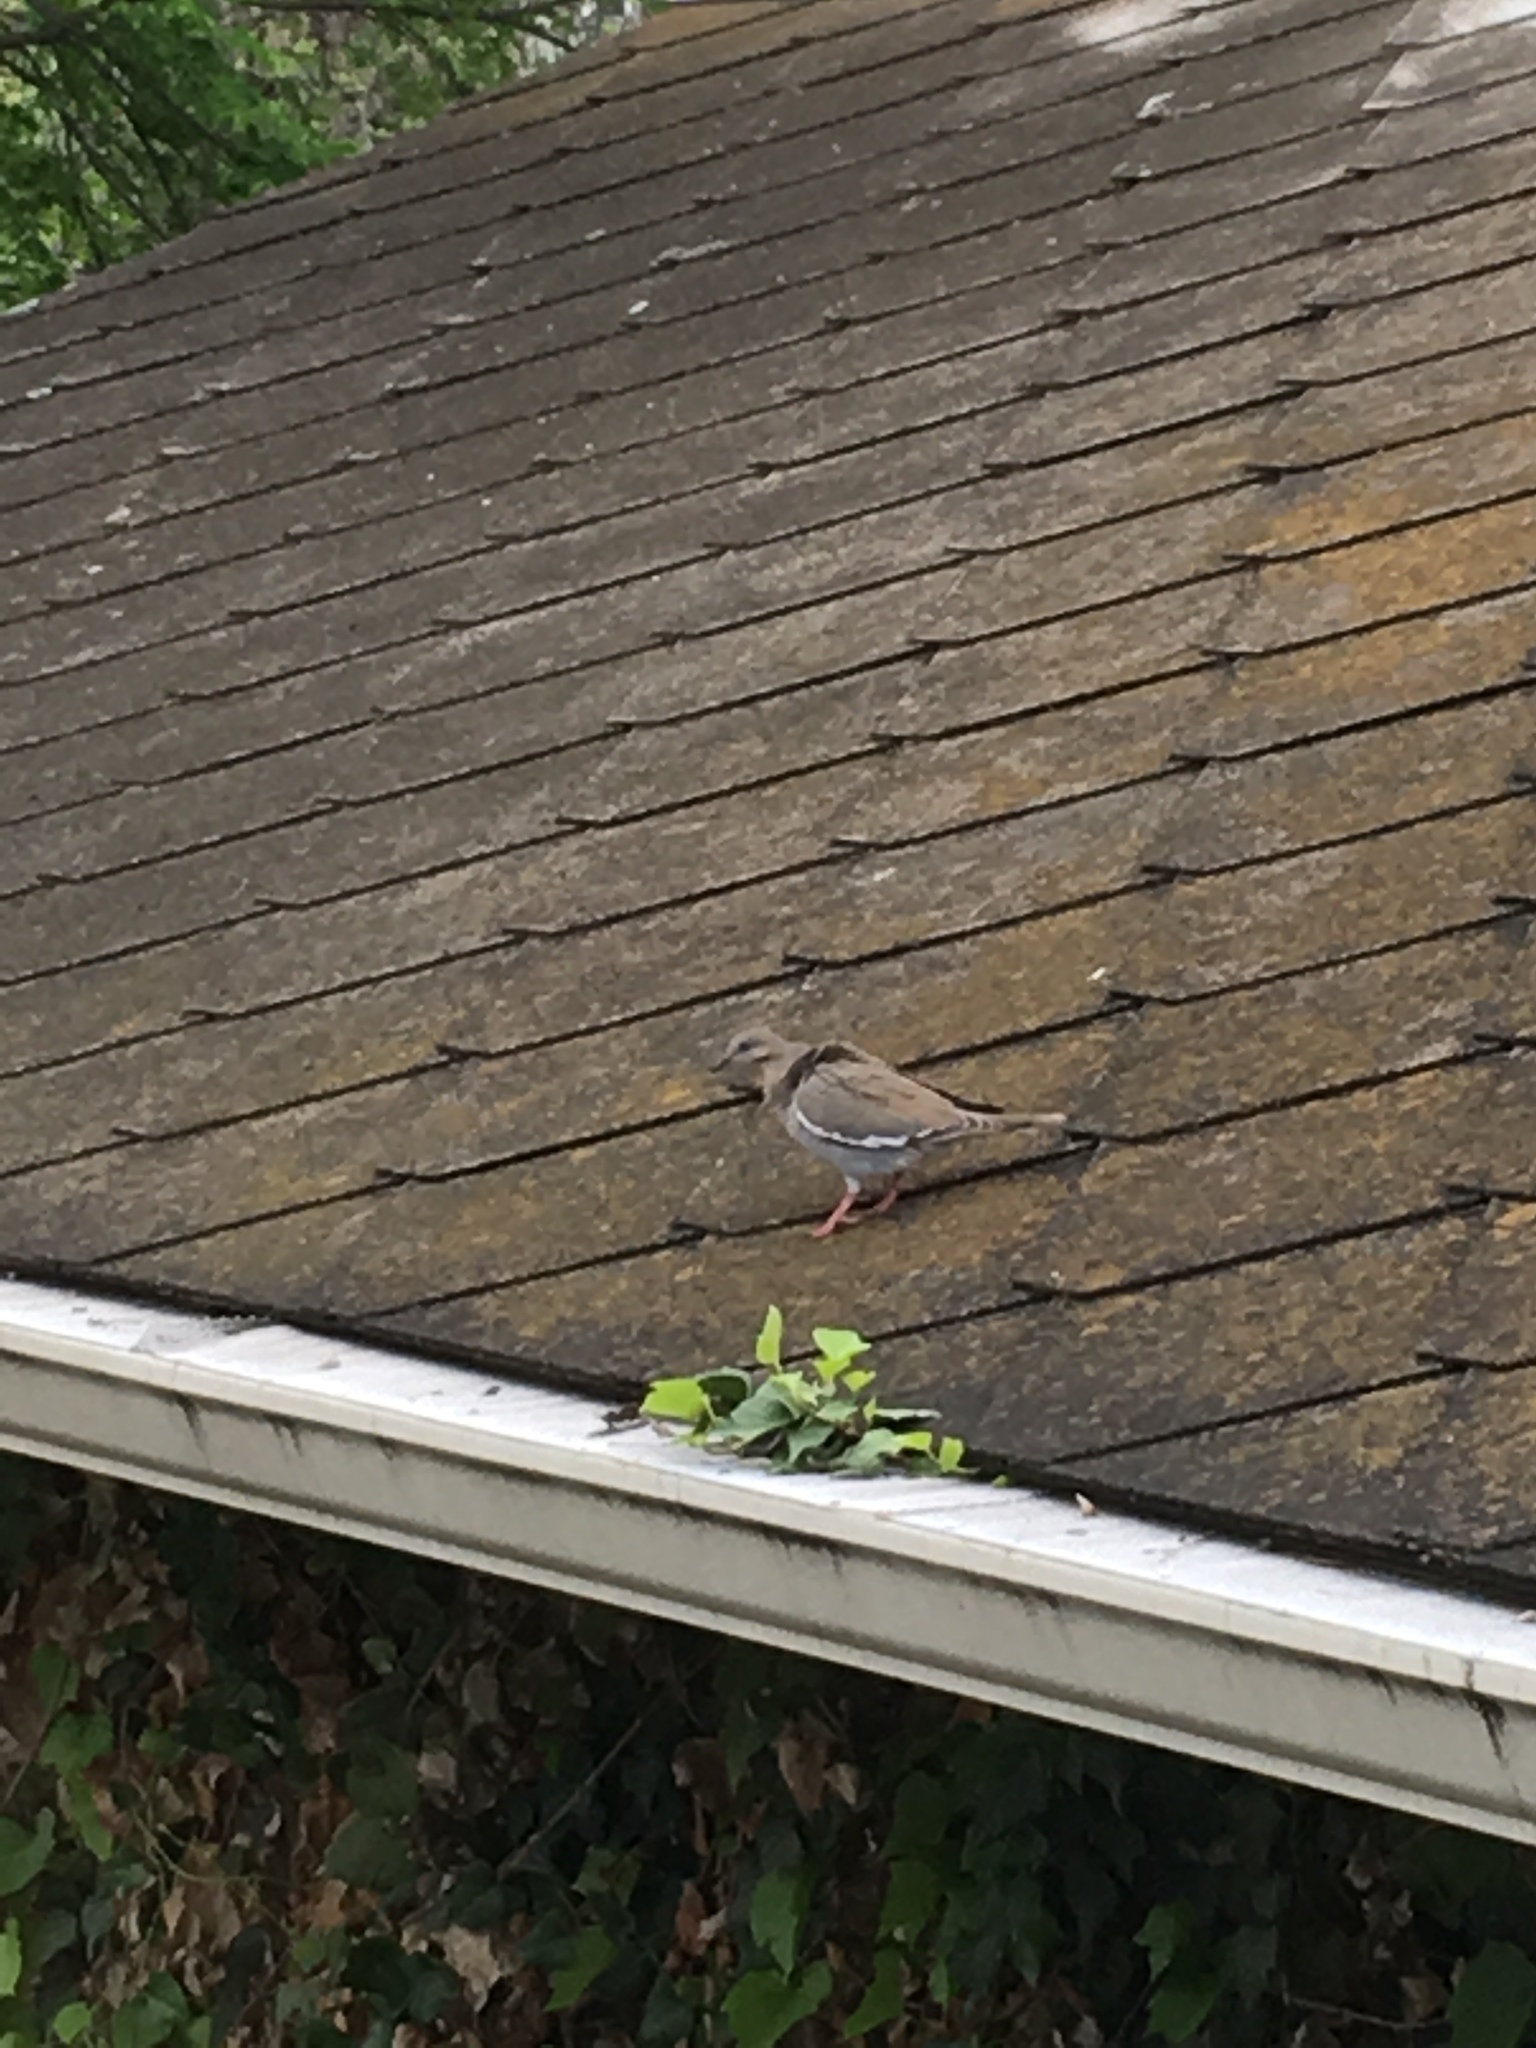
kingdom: Animalia
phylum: Chordata
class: Aves
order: Columbiformes
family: Columbidae
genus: Zenaida
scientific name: Zenaida asiatica
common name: White-winged dove
